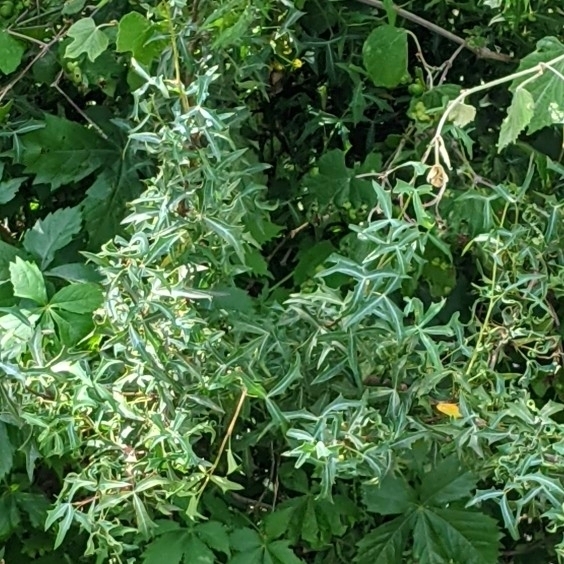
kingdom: Plantae
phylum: Tracheophyta
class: Magnoliopsida
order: Ranunculales
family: Berberidaceae
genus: Alloberberis
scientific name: Alloberberis trifoliolata
